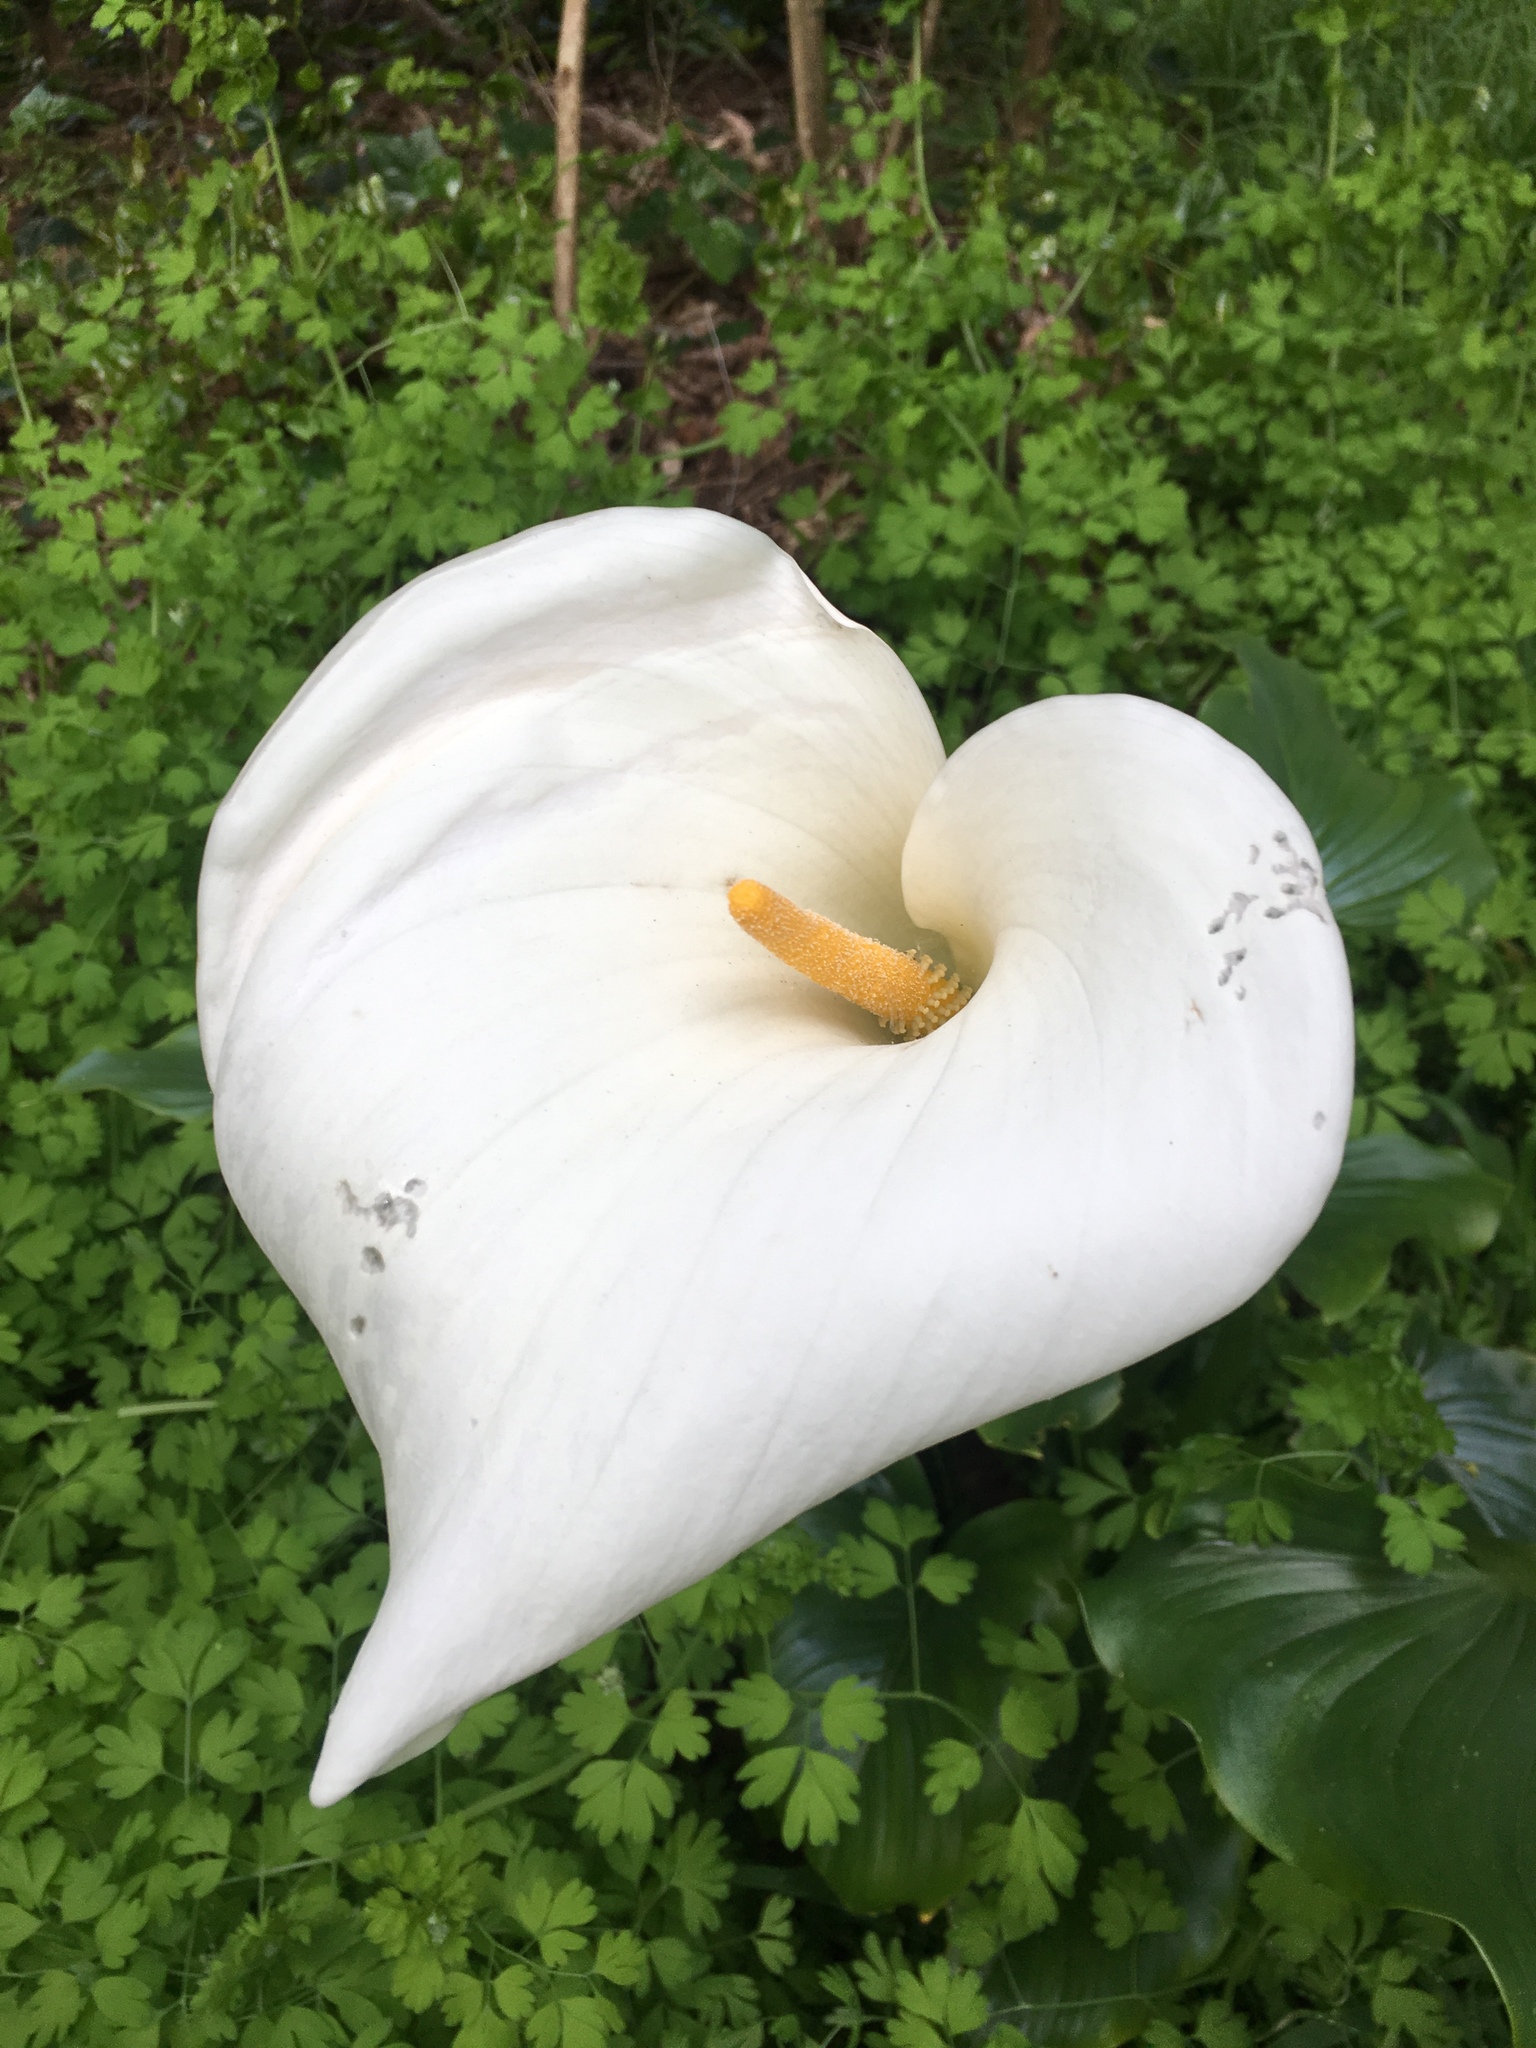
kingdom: Plantae
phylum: Tracheophyta
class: Liliopsida
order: Alismatales
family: Araceae
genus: Zantedeschia
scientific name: Zantedeschia aethiopica
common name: Altar-lily
